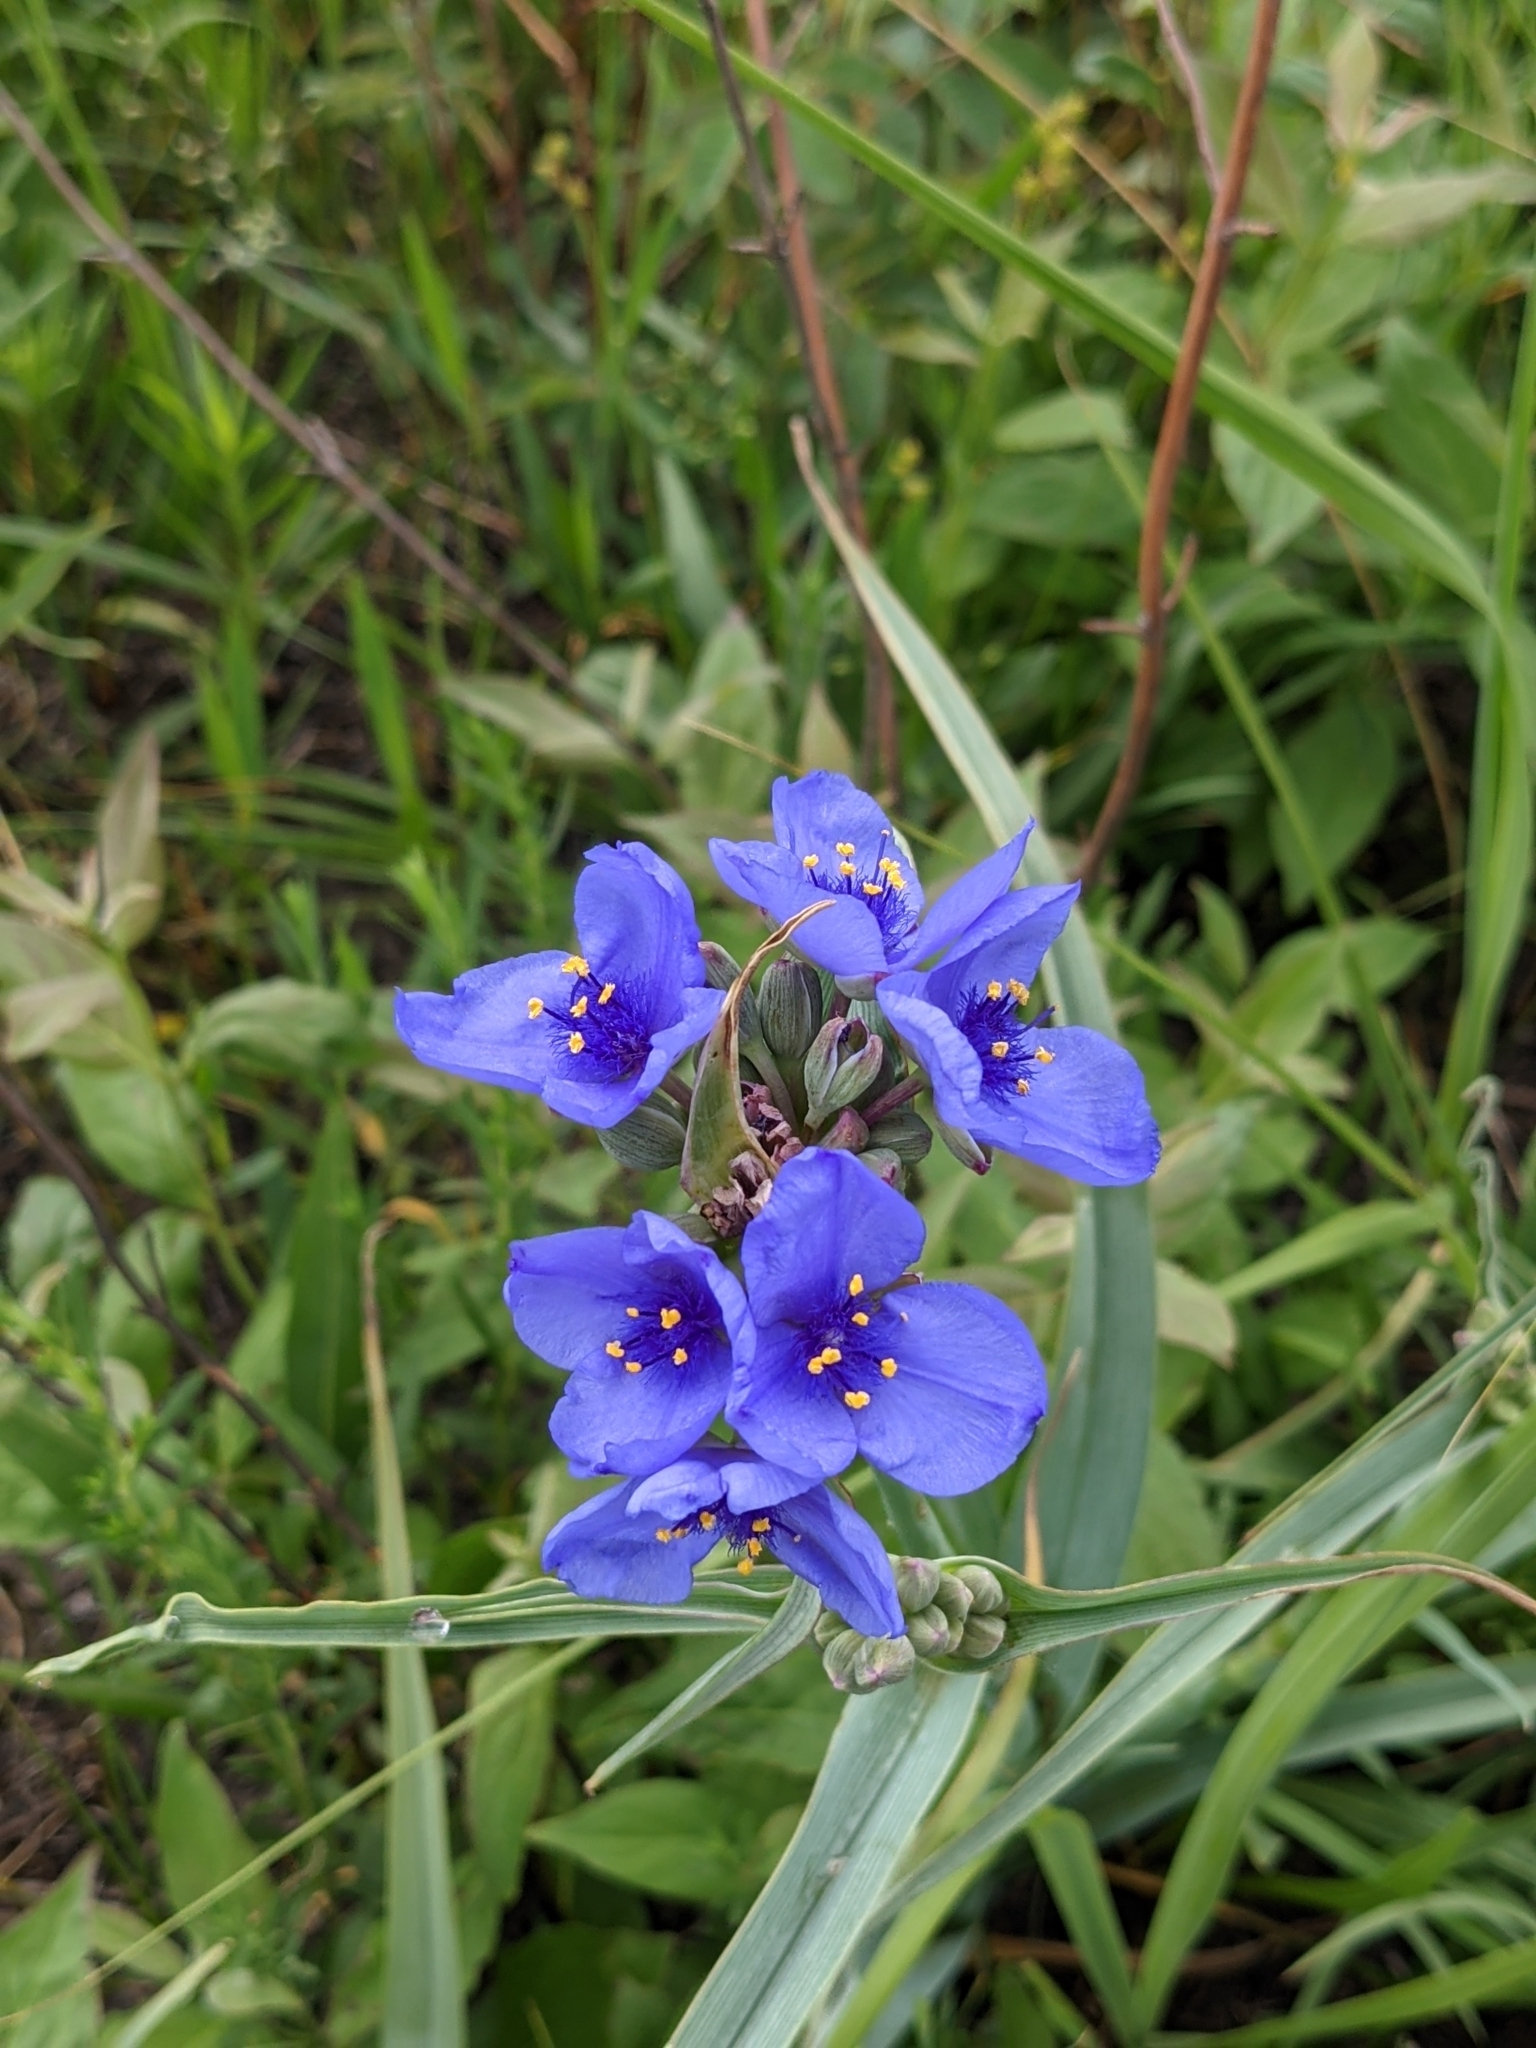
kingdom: Plantae
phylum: Tracheophyta
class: Liliopsida
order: Commelinales
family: Commelinaceae
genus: Tradescantia
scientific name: Tradescantia ohiensis
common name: Ohio spiderwort
